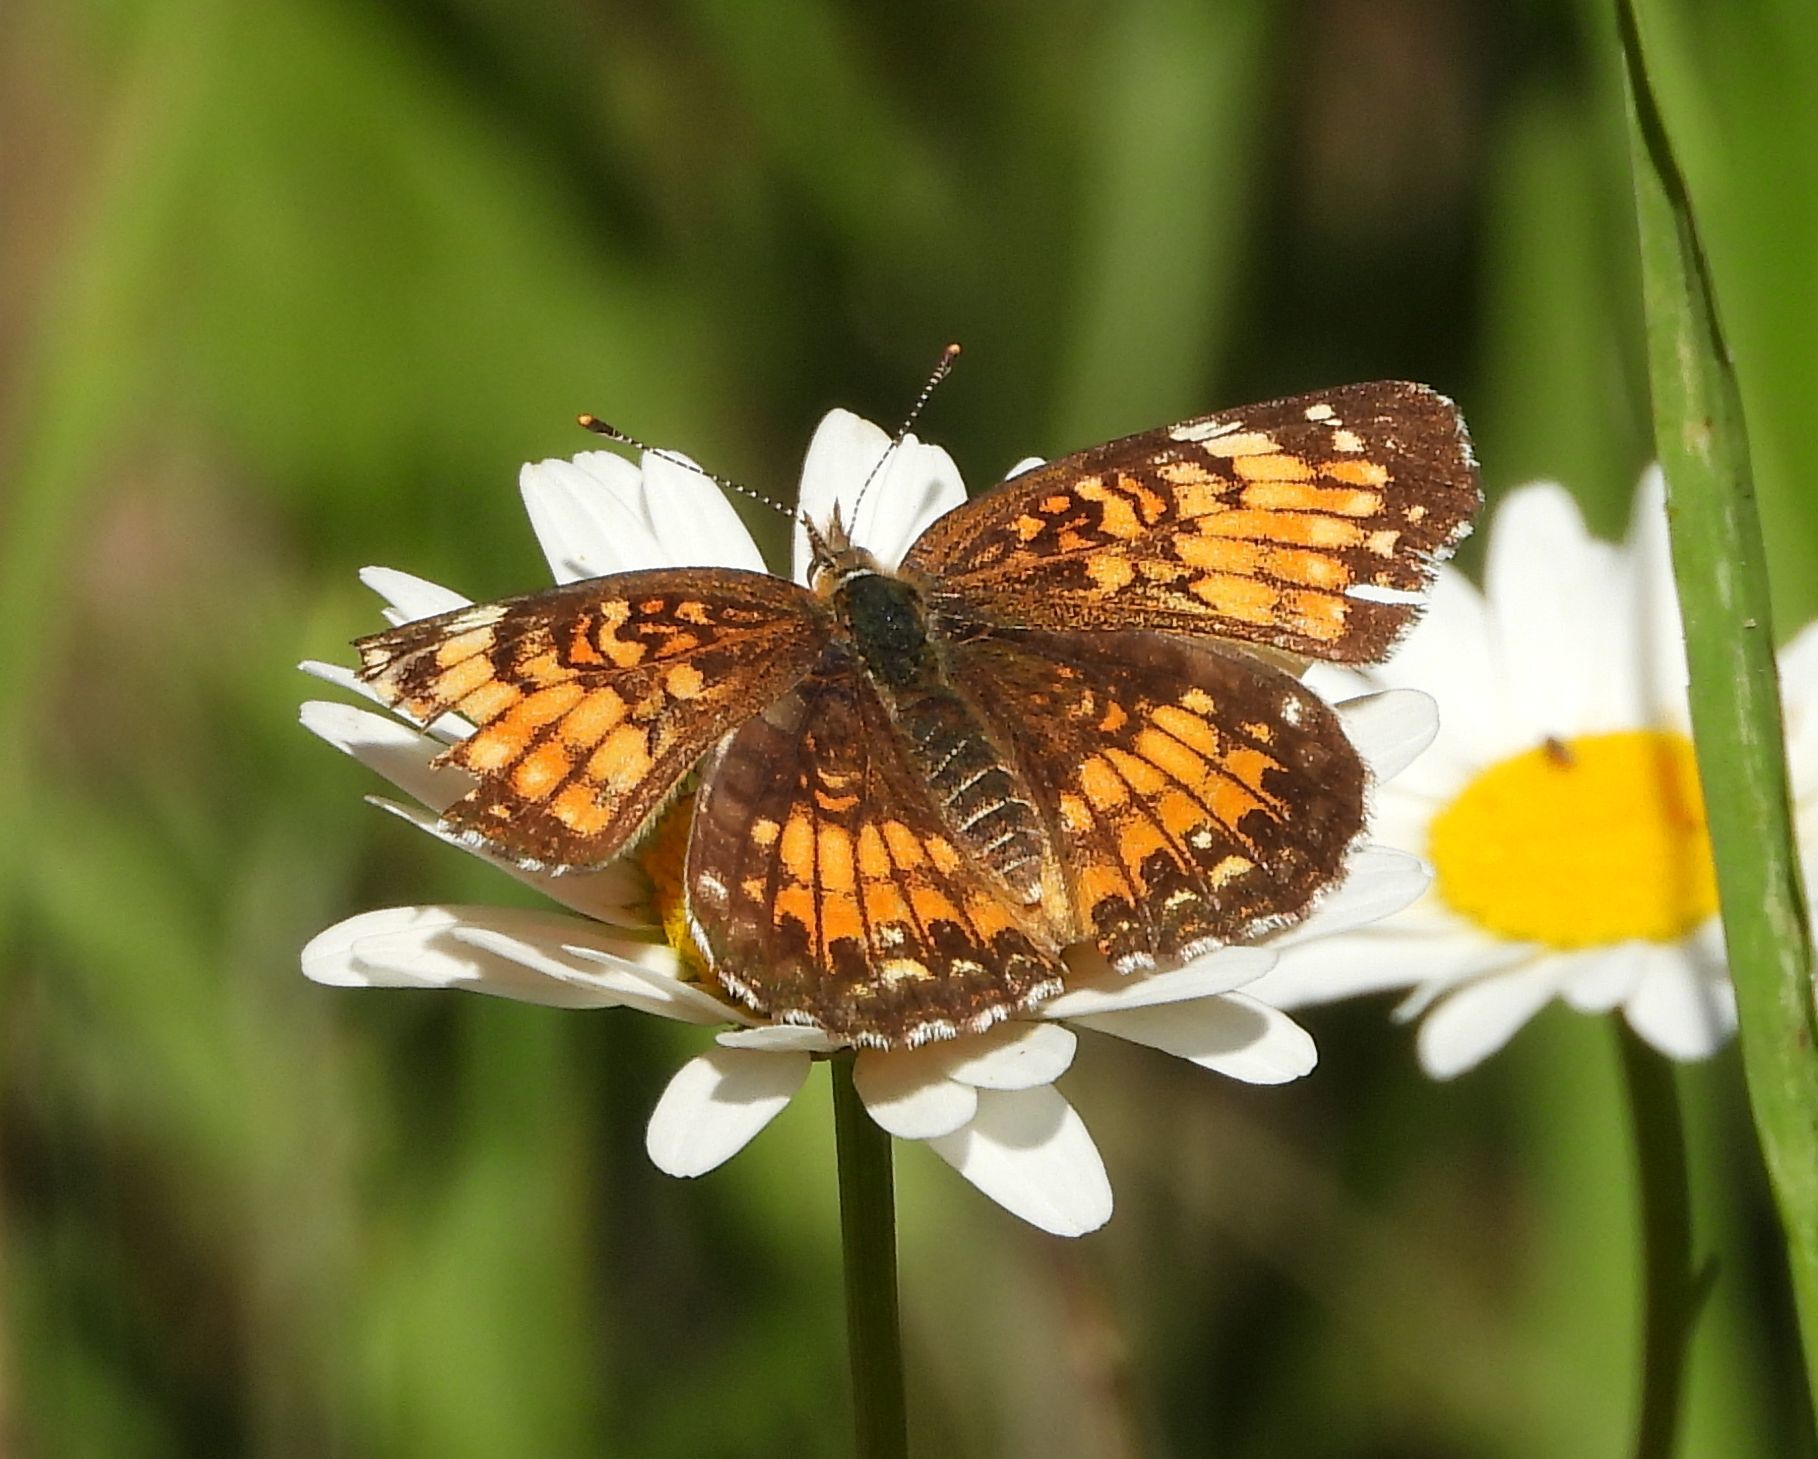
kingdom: Animalia
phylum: Arthropoda
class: Insecta
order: Lepidoptera
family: Nymphalidae
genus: Chlosyne
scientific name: Chlosyne harrisii
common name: Harris's checkerspot
